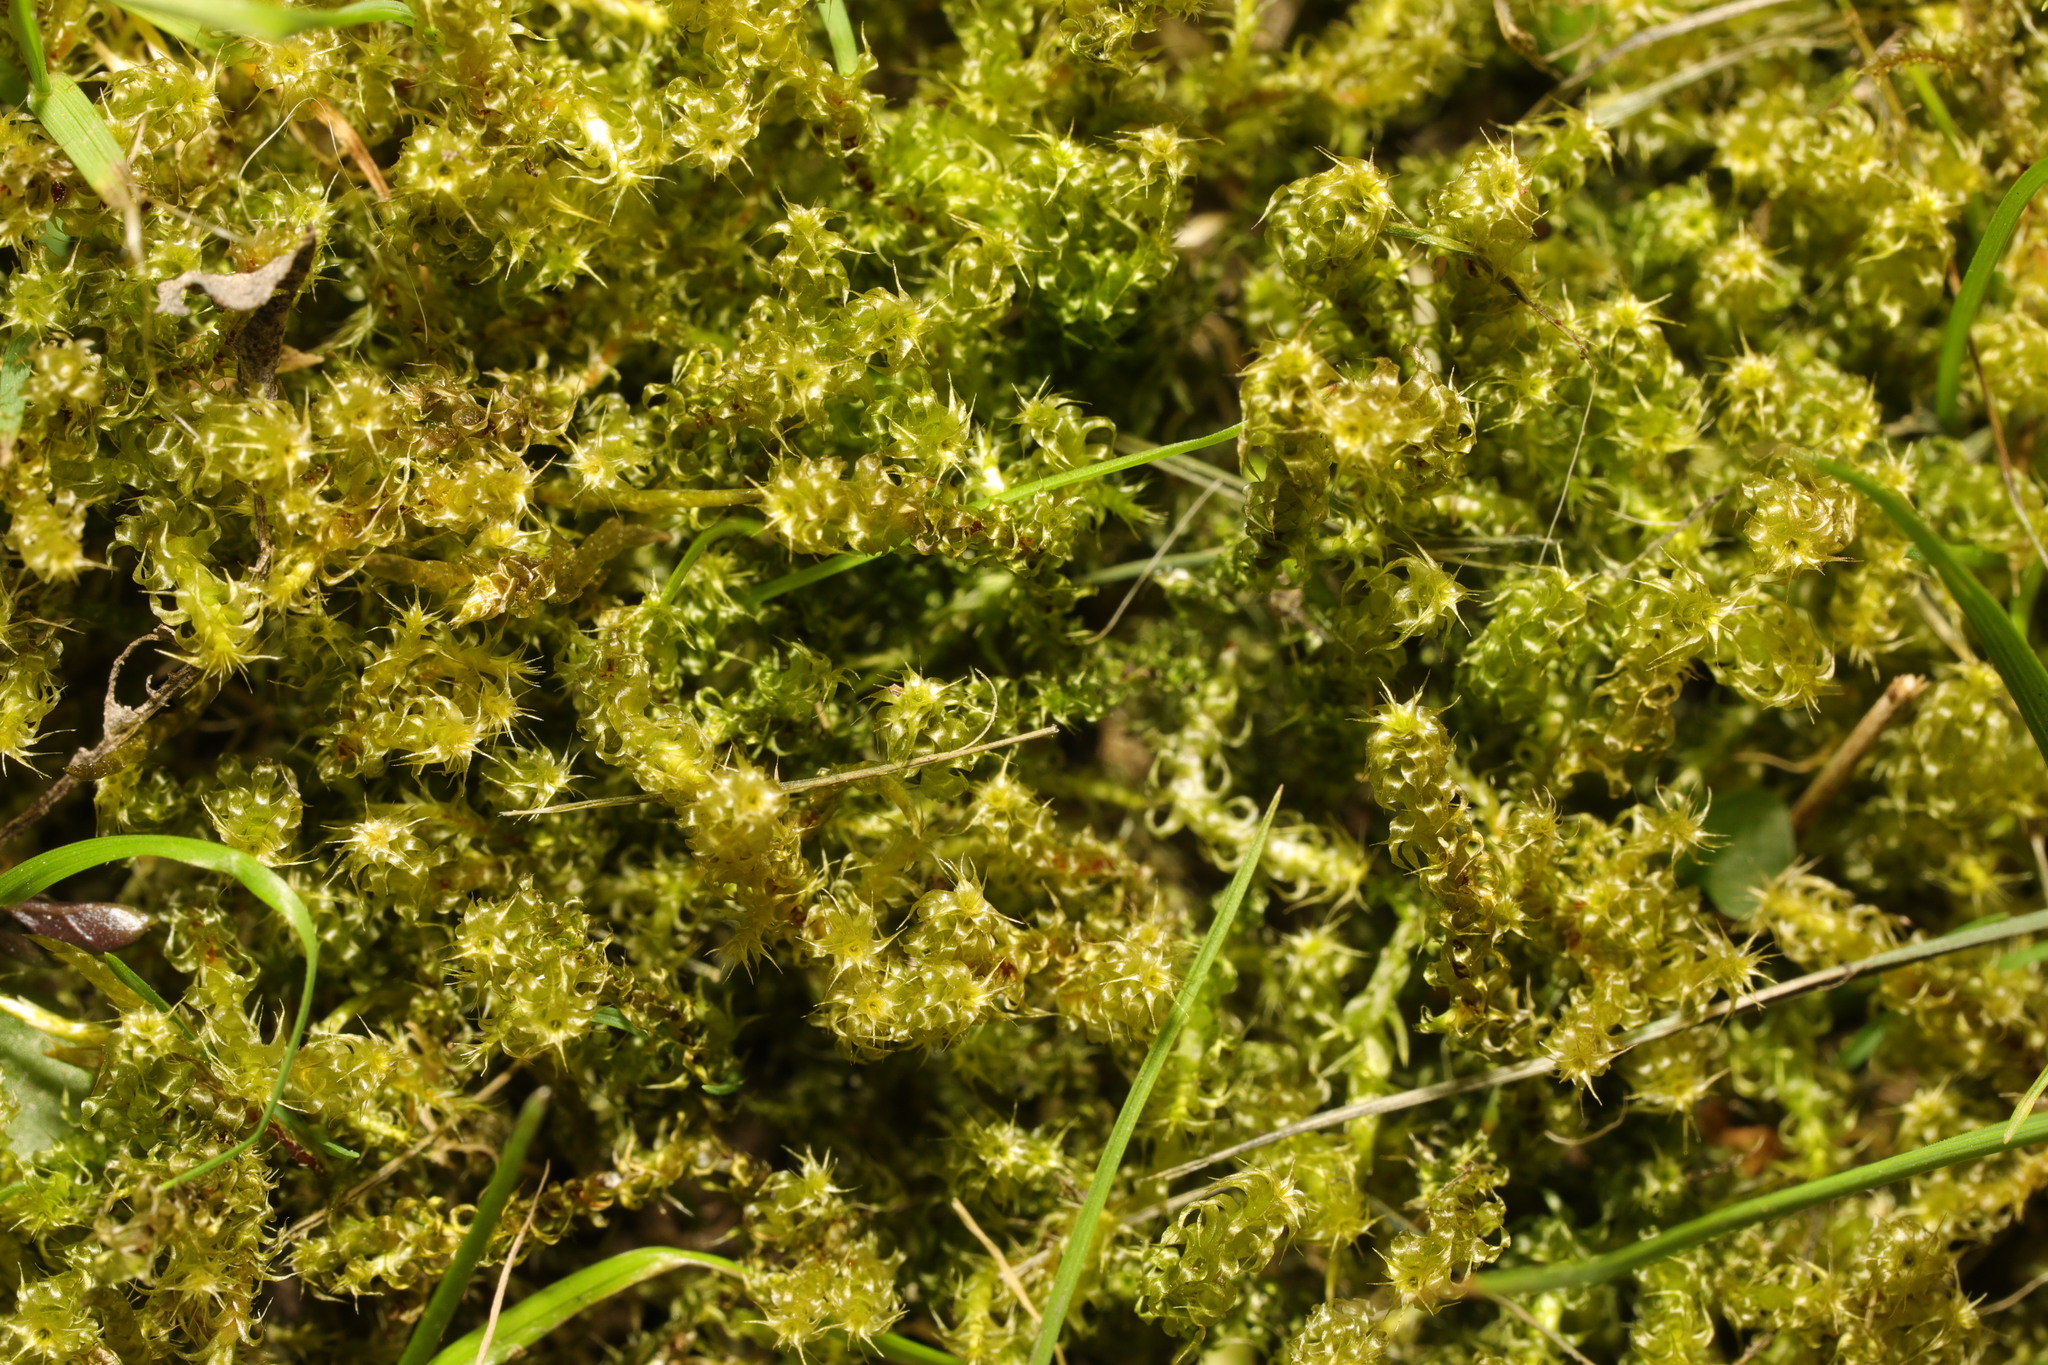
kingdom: Plantae
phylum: Bryophyta
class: Bryopsida
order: Hypnales
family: Hylocomiaceae
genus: Rhytidiadelphus
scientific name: Rhytidiadelphus squarrosus
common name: Springy turf-moss
